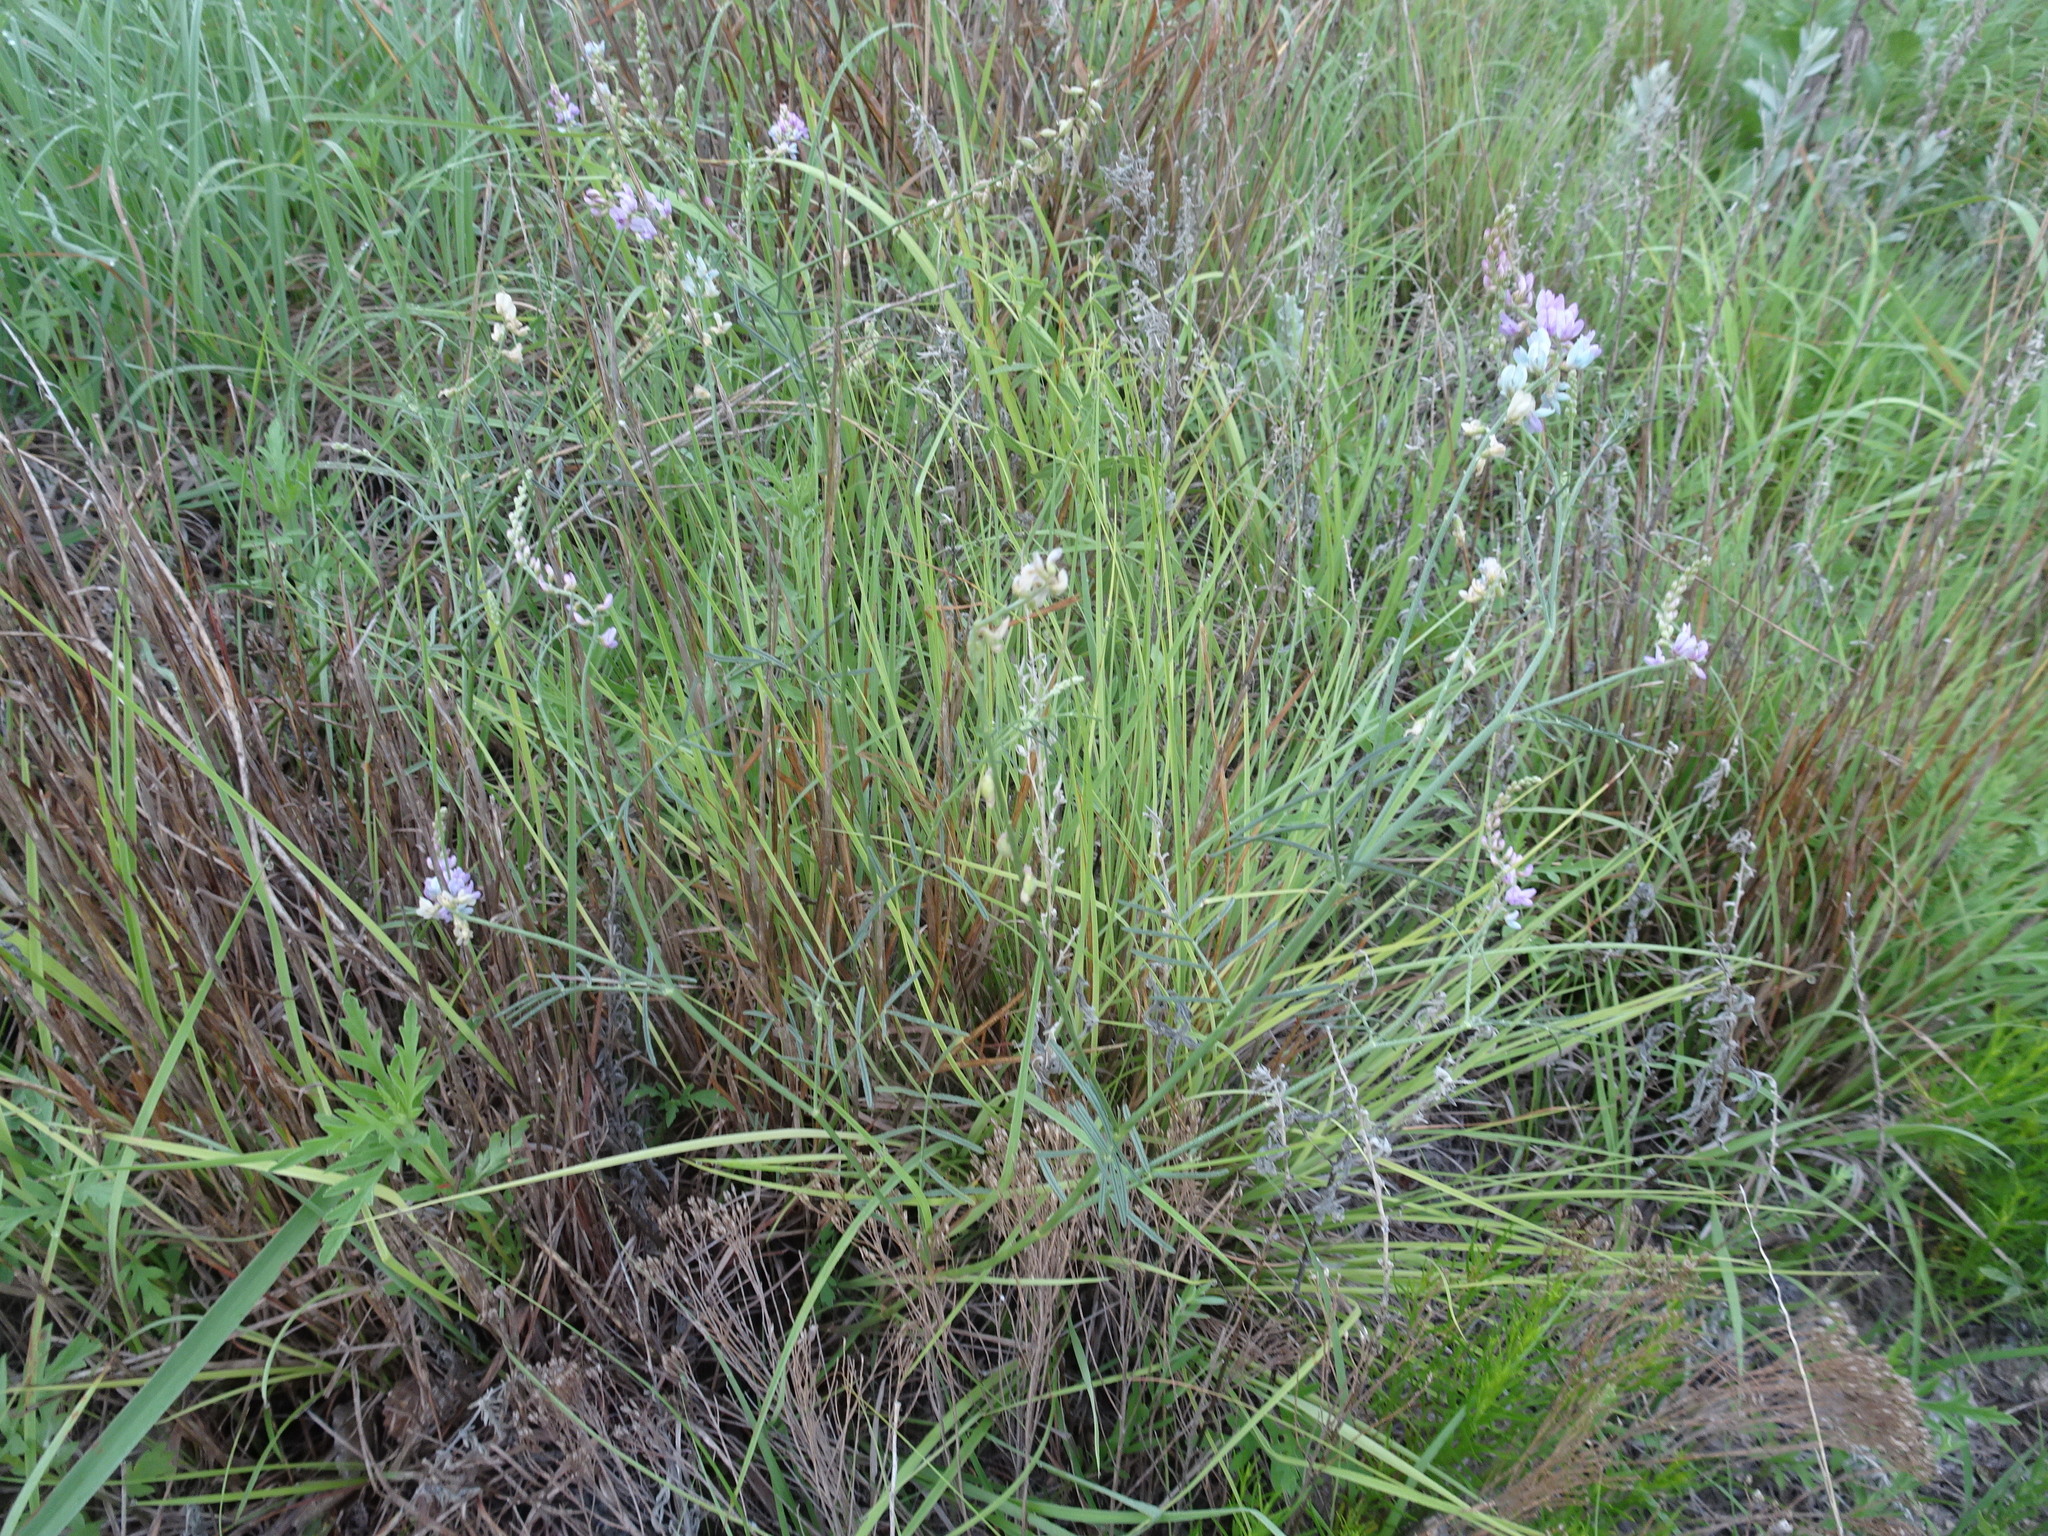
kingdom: Plantae
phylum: Tracheophyta
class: Magnoliopsida
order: Fabales
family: Fabaceae
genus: Astragalus
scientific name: Astragalus gracilis
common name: Slender milk-vetch
